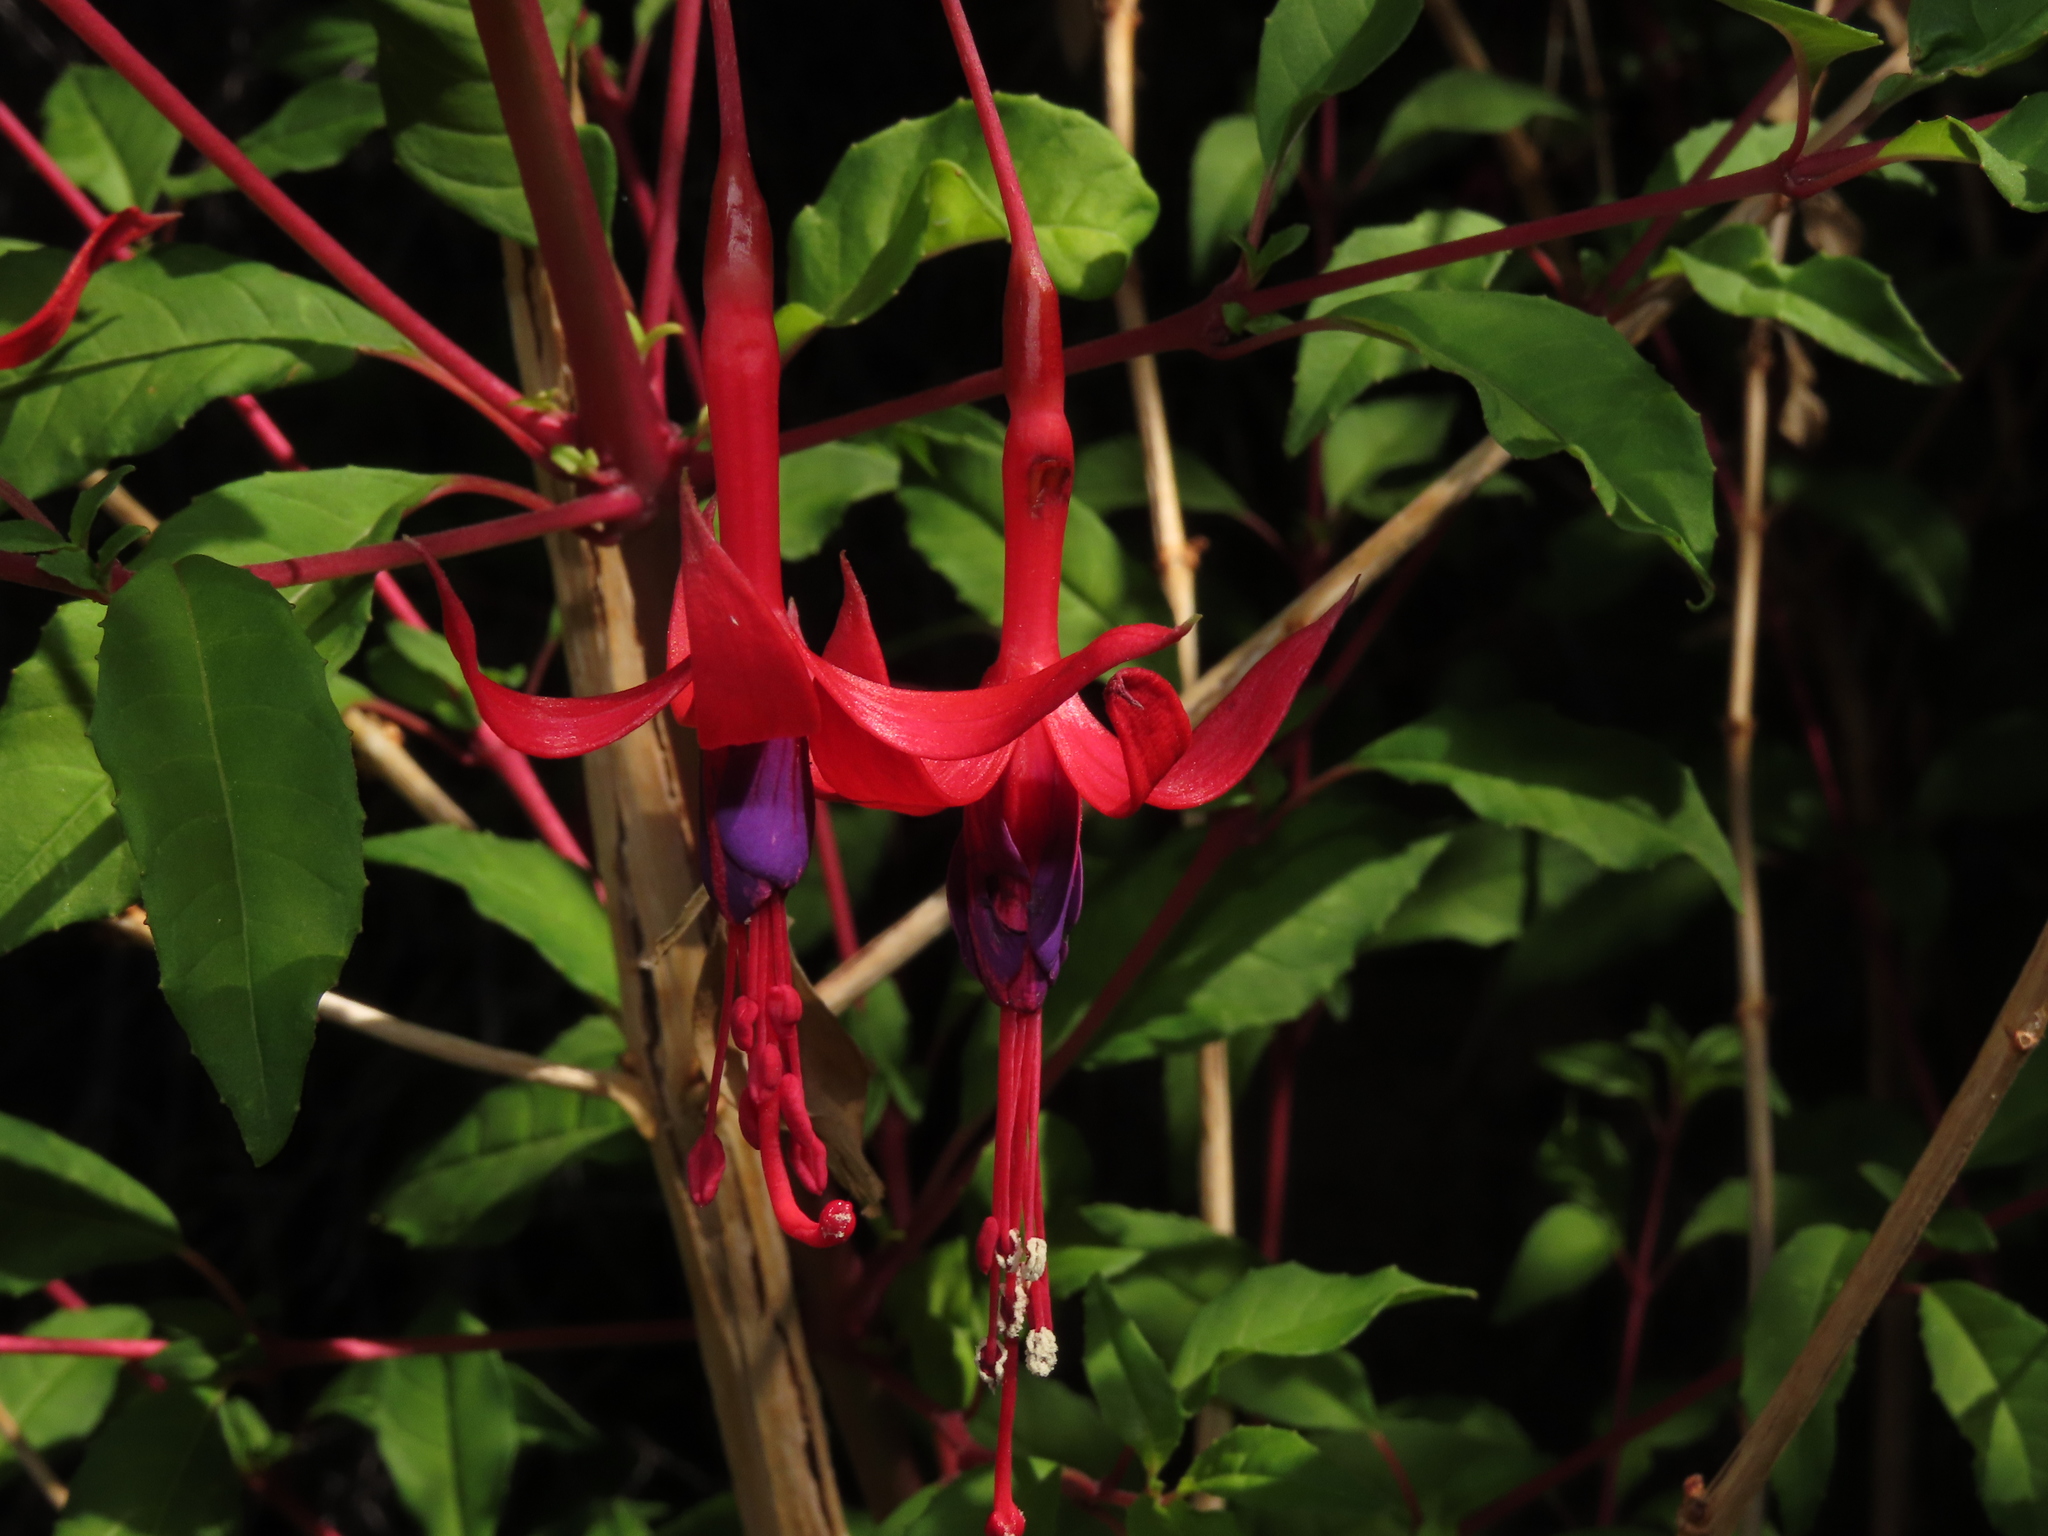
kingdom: Plantae
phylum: Tracheophyta
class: Magnoliopsida
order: Myrtales
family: Onagraceae
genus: Fuchsia
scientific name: Fuchsia magellanica
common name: Hardy fuchsia
